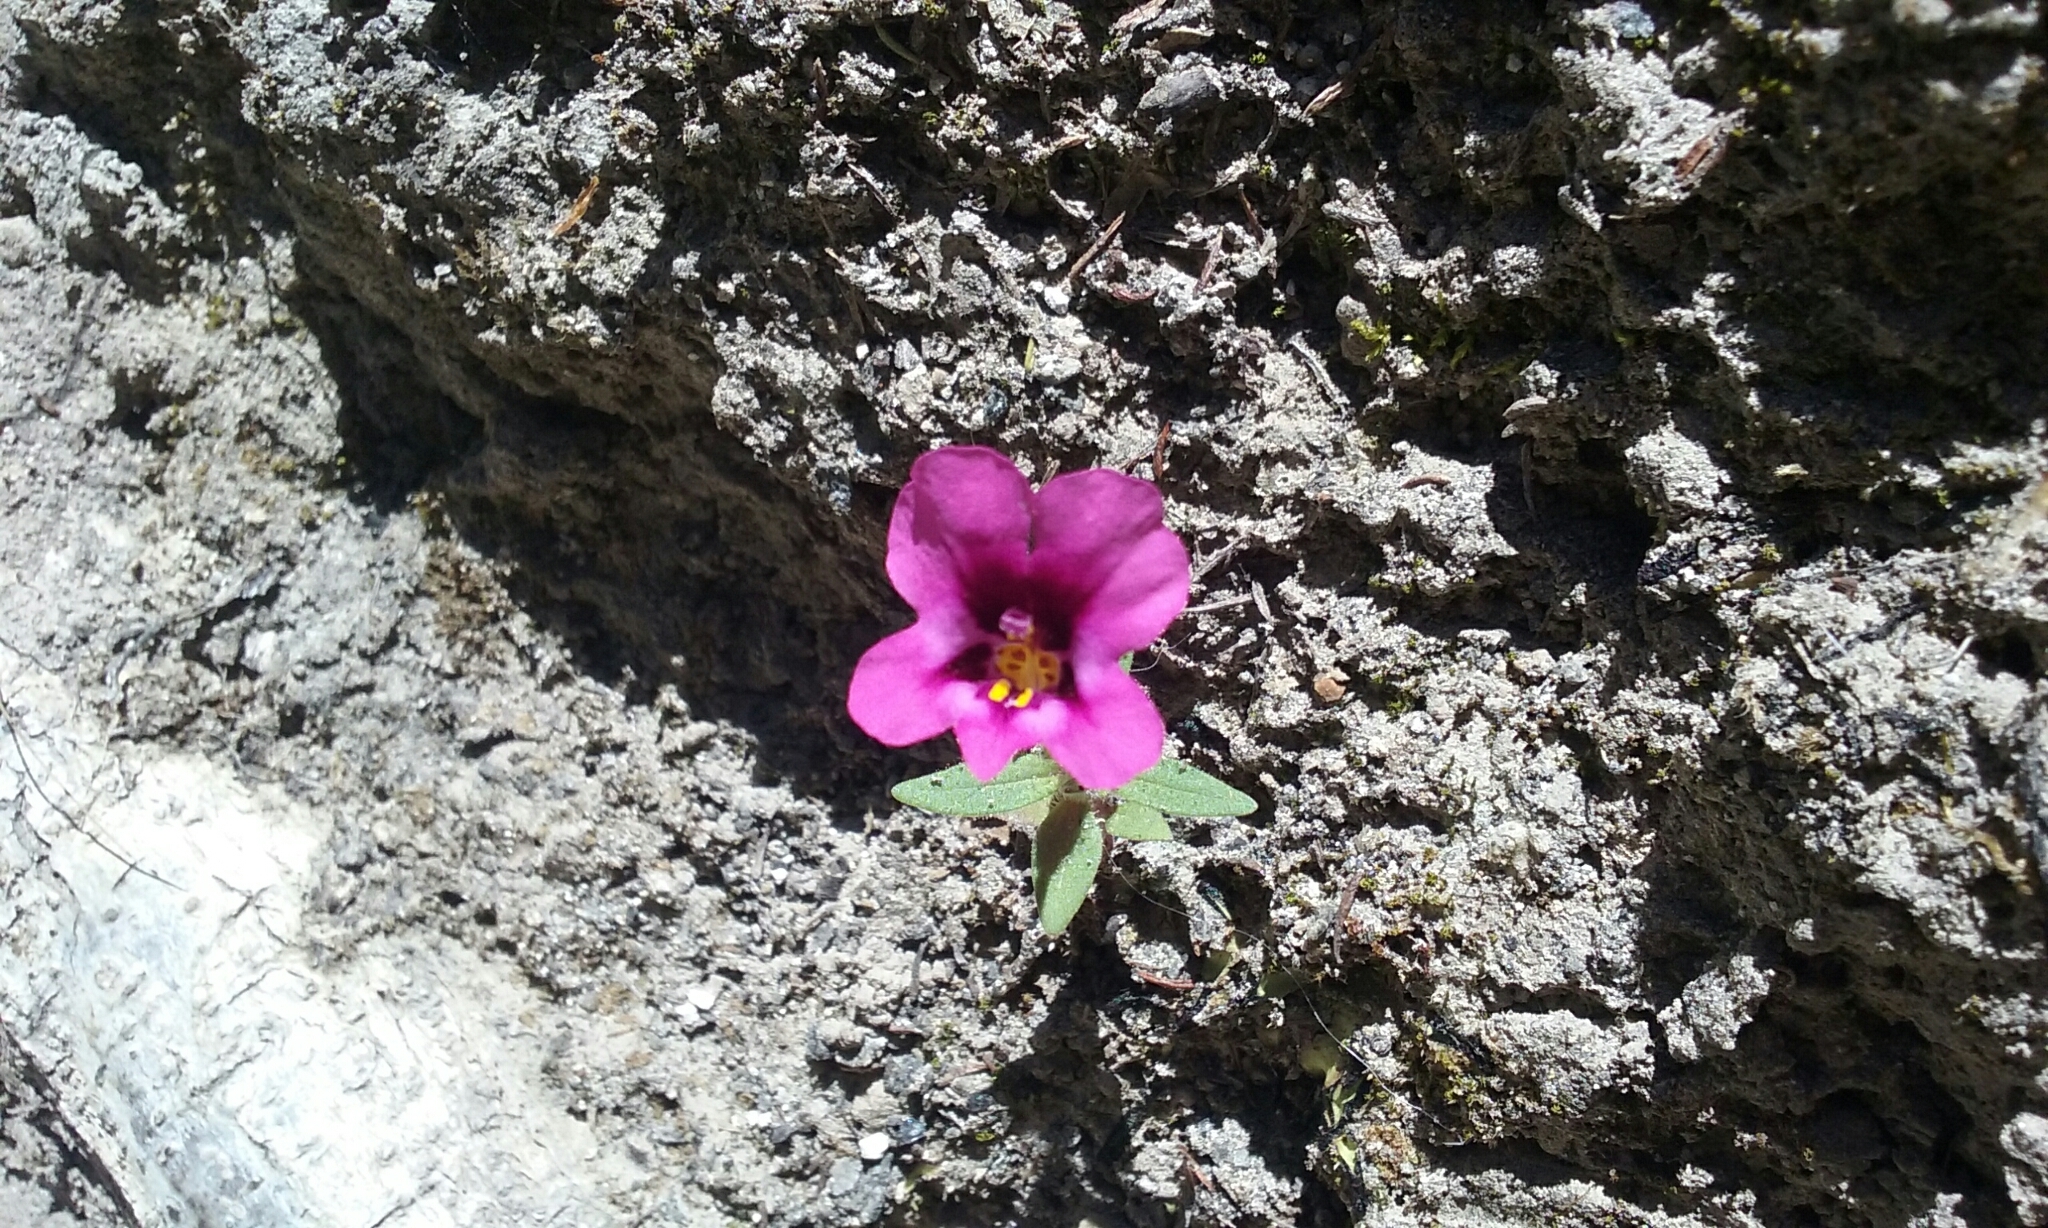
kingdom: Plantae
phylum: Tracheophyta
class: Magnoliopsida
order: Lamiales
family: Phrymaceae
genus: Diplacus
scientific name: Diplacus kelloggii
